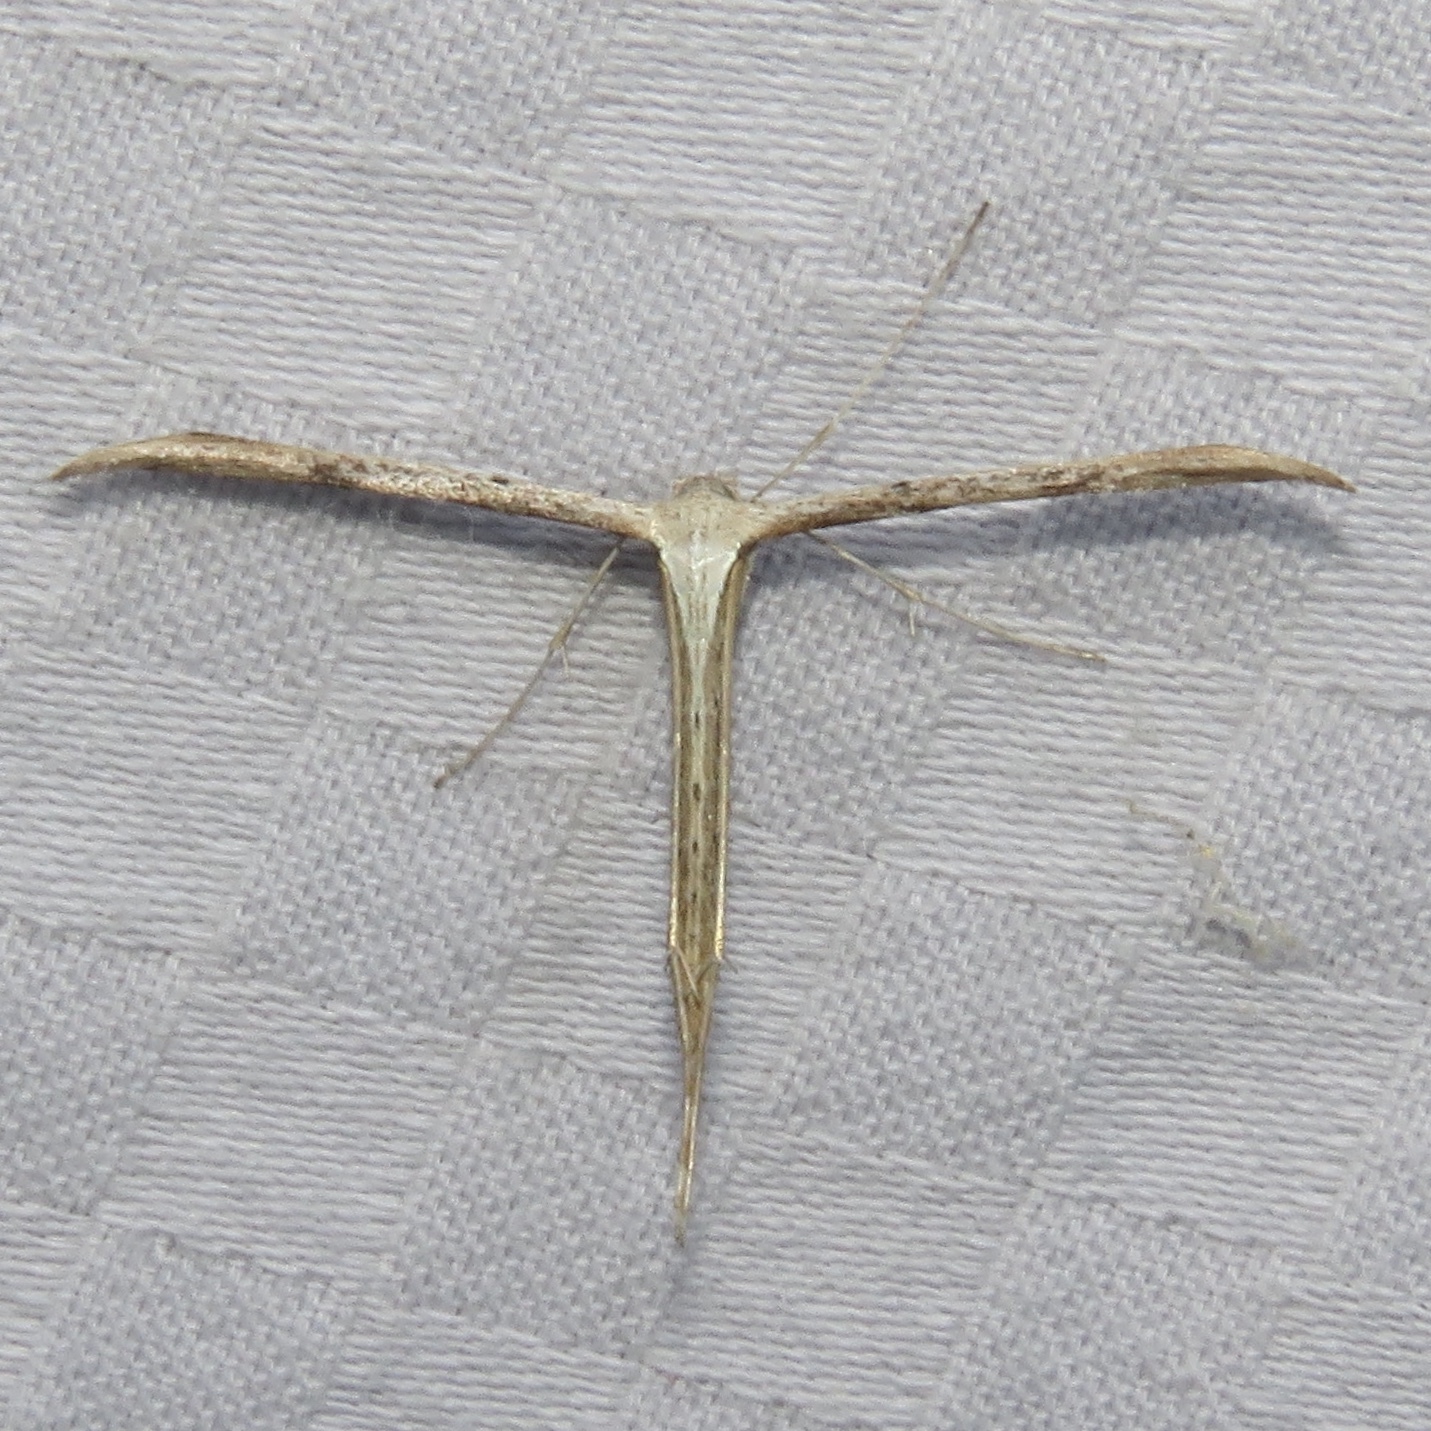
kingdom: Animalia
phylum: Arthropoda
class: Insecta
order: Lepidoptera
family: Pterophoridae
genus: Emmelina
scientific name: Emmelina monodactyla
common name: Common plume
